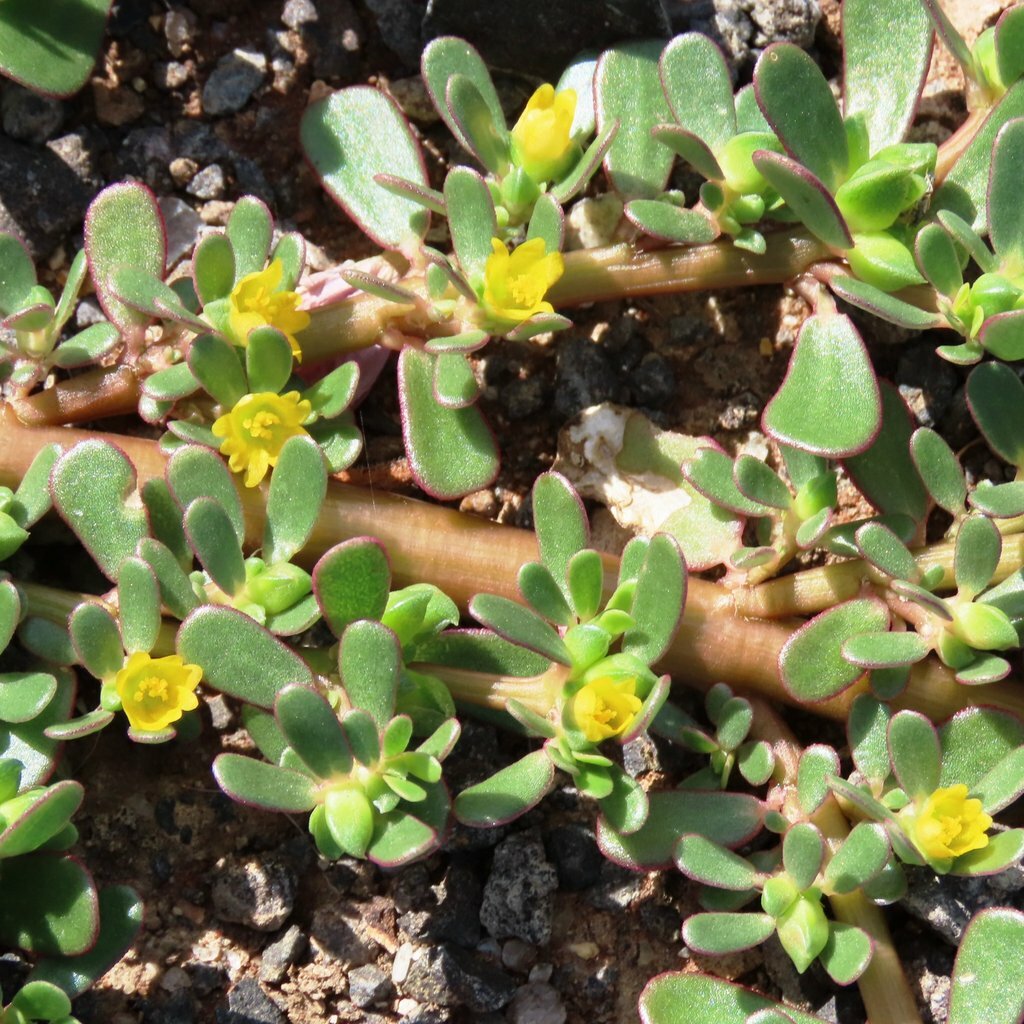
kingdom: Plantae
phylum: Tracheophyta
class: Magnoliopsida
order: Caryophyllales
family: Portulacaceae
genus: Portulaca
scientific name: Portulaca oleracea
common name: Common purslane
